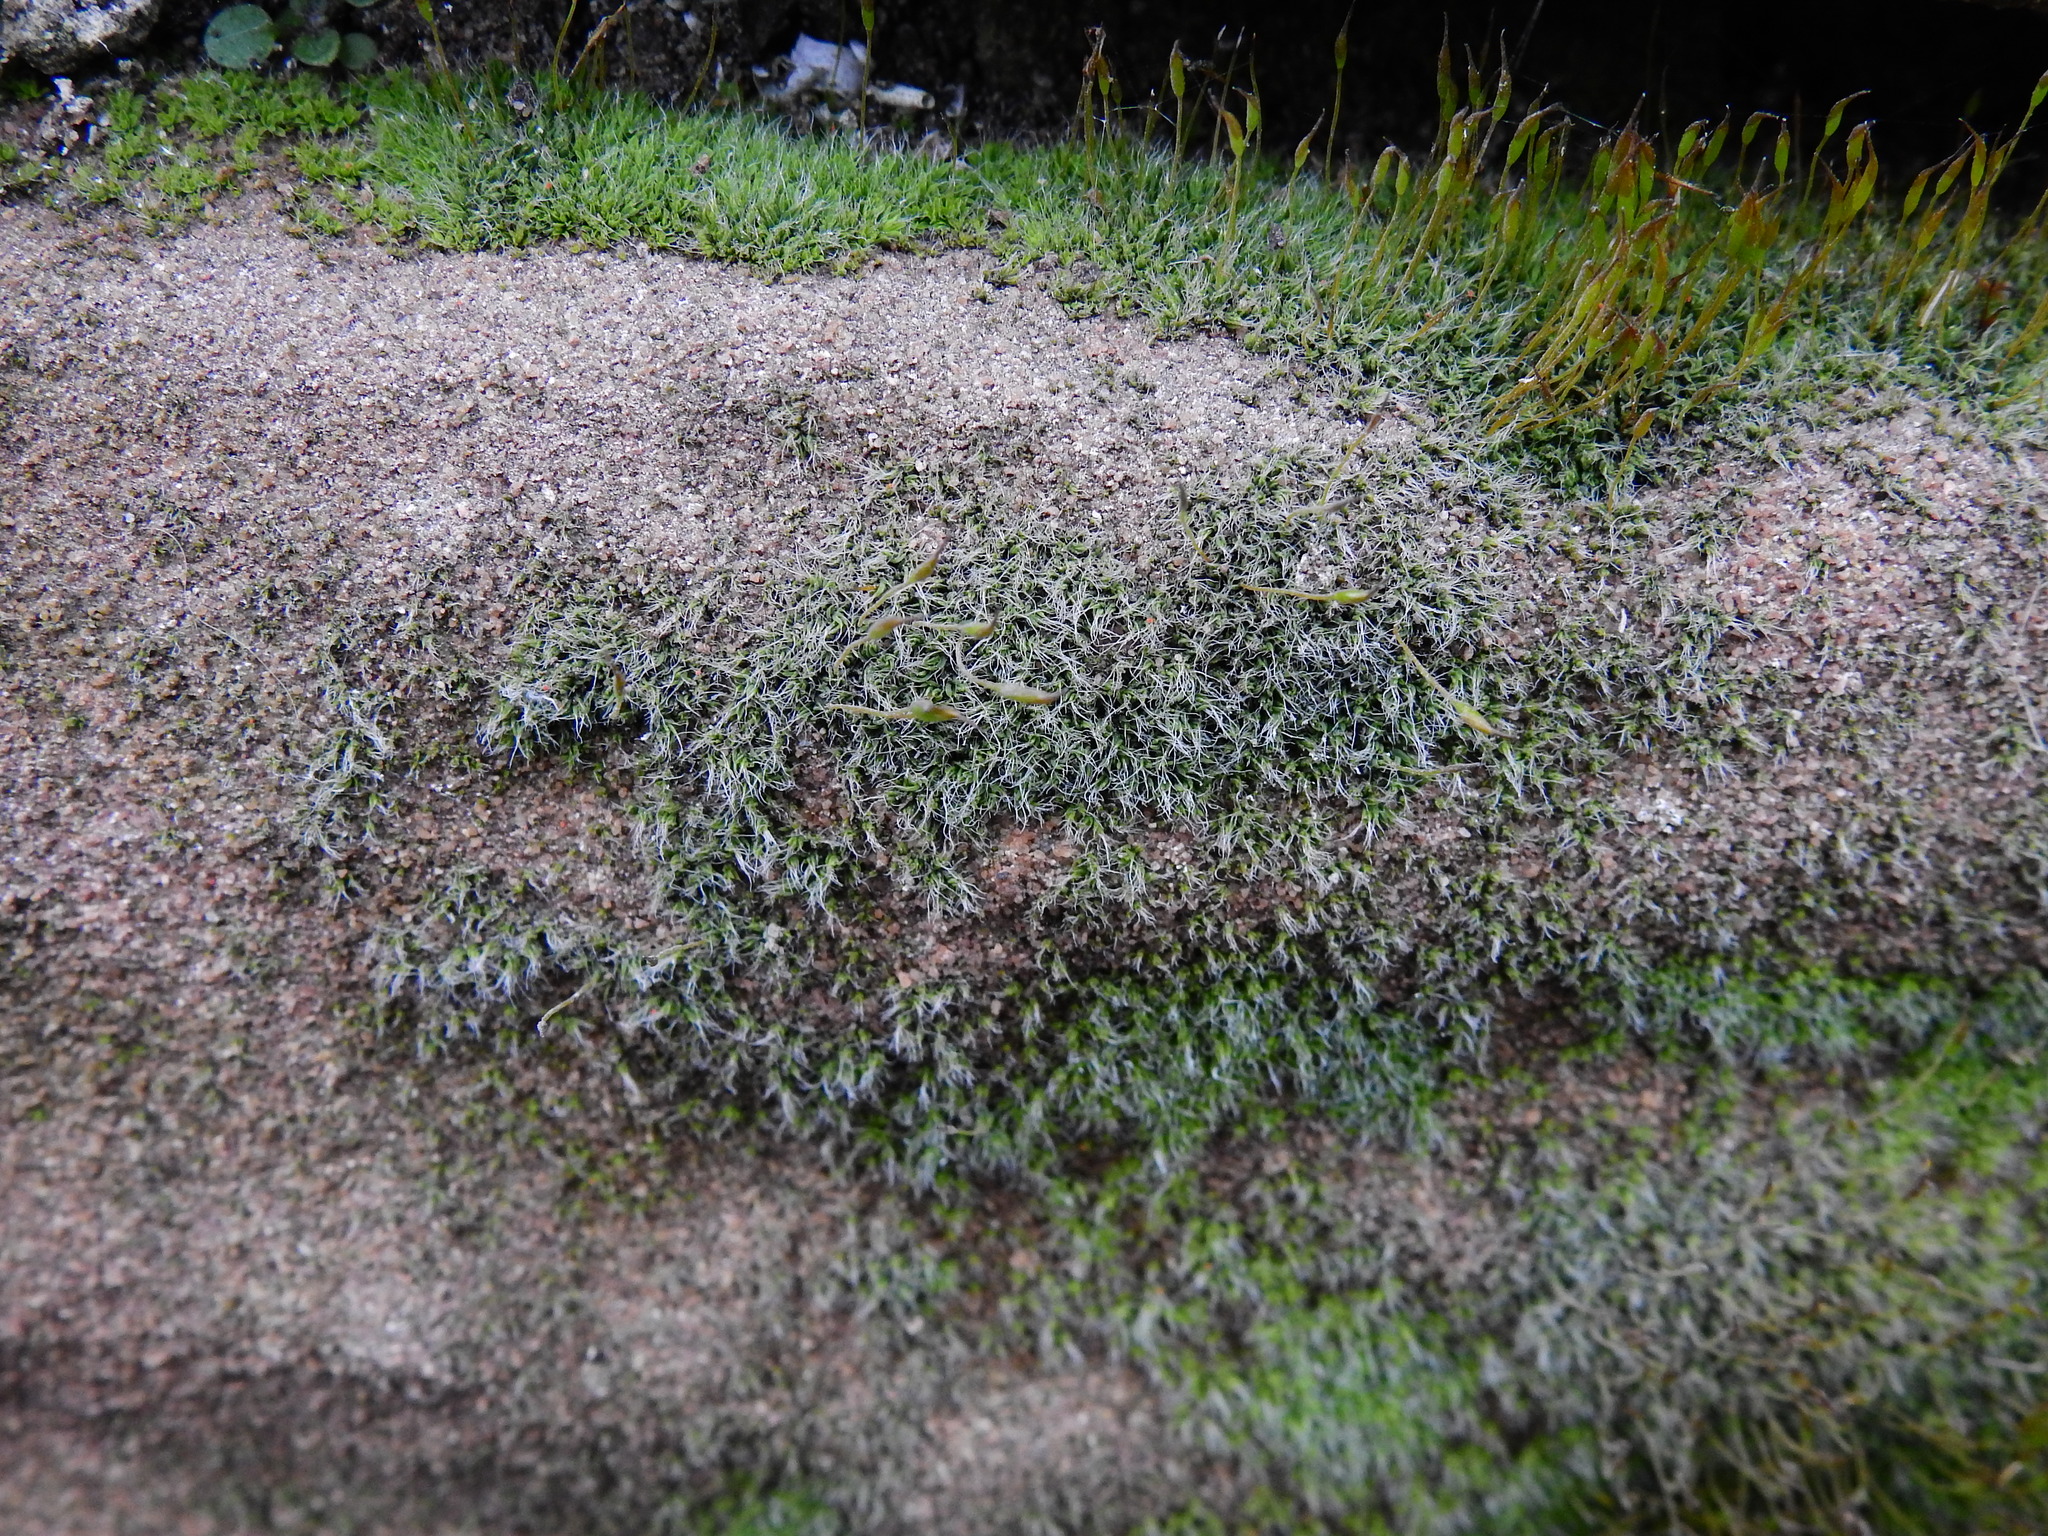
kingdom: Plantae
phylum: Bryophyta
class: Bryopsida
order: Pottiales
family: Pottiaceae
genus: Tortula
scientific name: Tortula muralis
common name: Wall screw-moss
